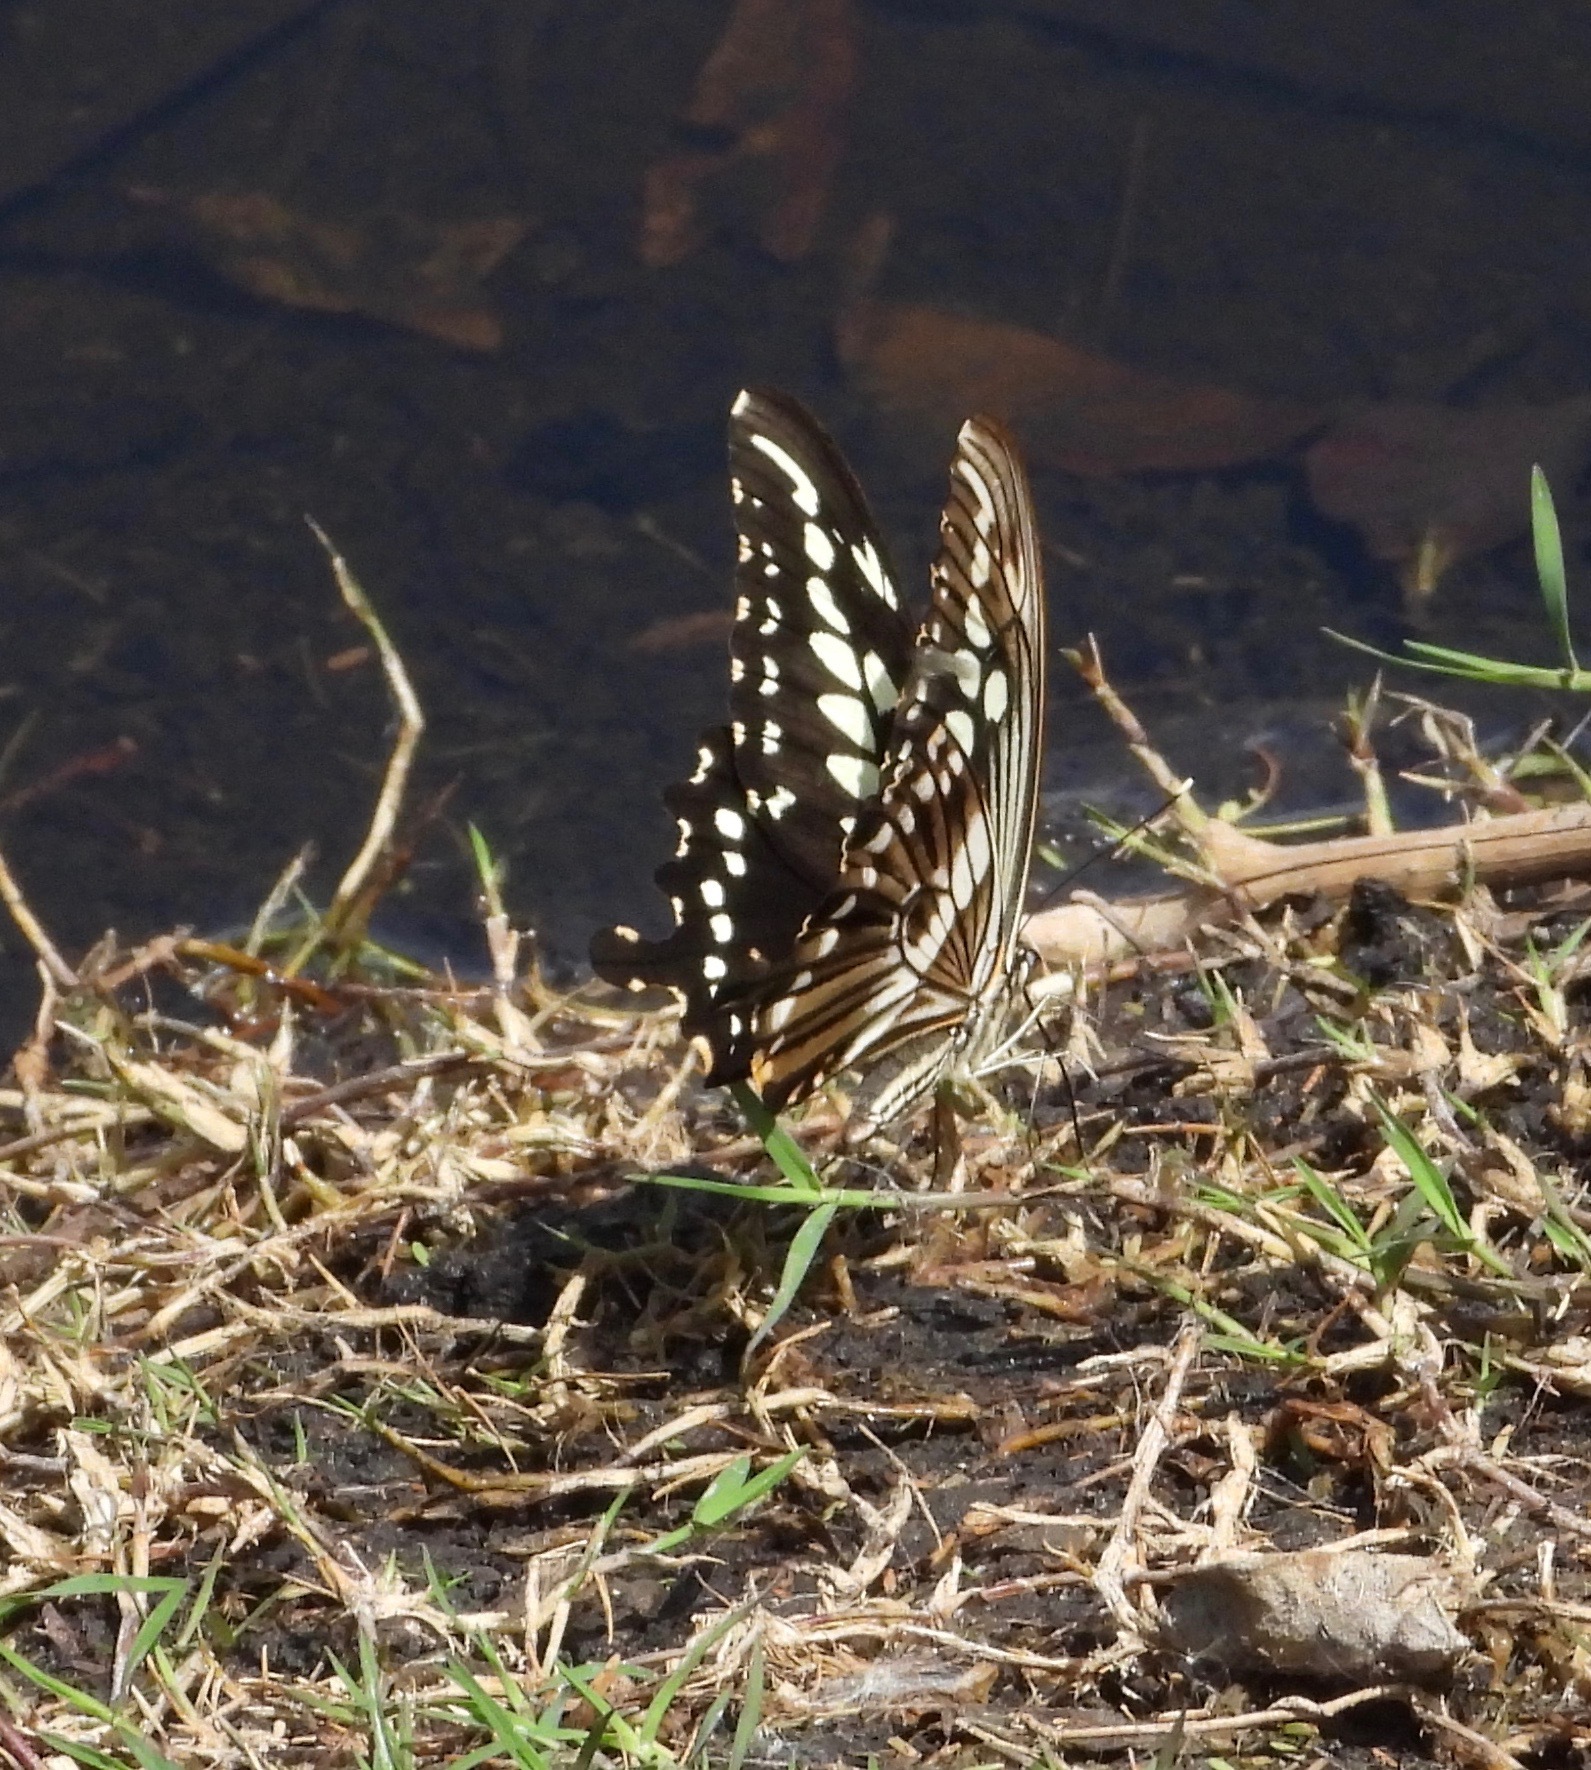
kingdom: Animalia
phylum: Arthropoda
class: Insecta
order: Lepidoptera
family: Papilionidae
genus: Papilio
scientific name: Papilio constantinus
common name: Constantine's swallowtail
